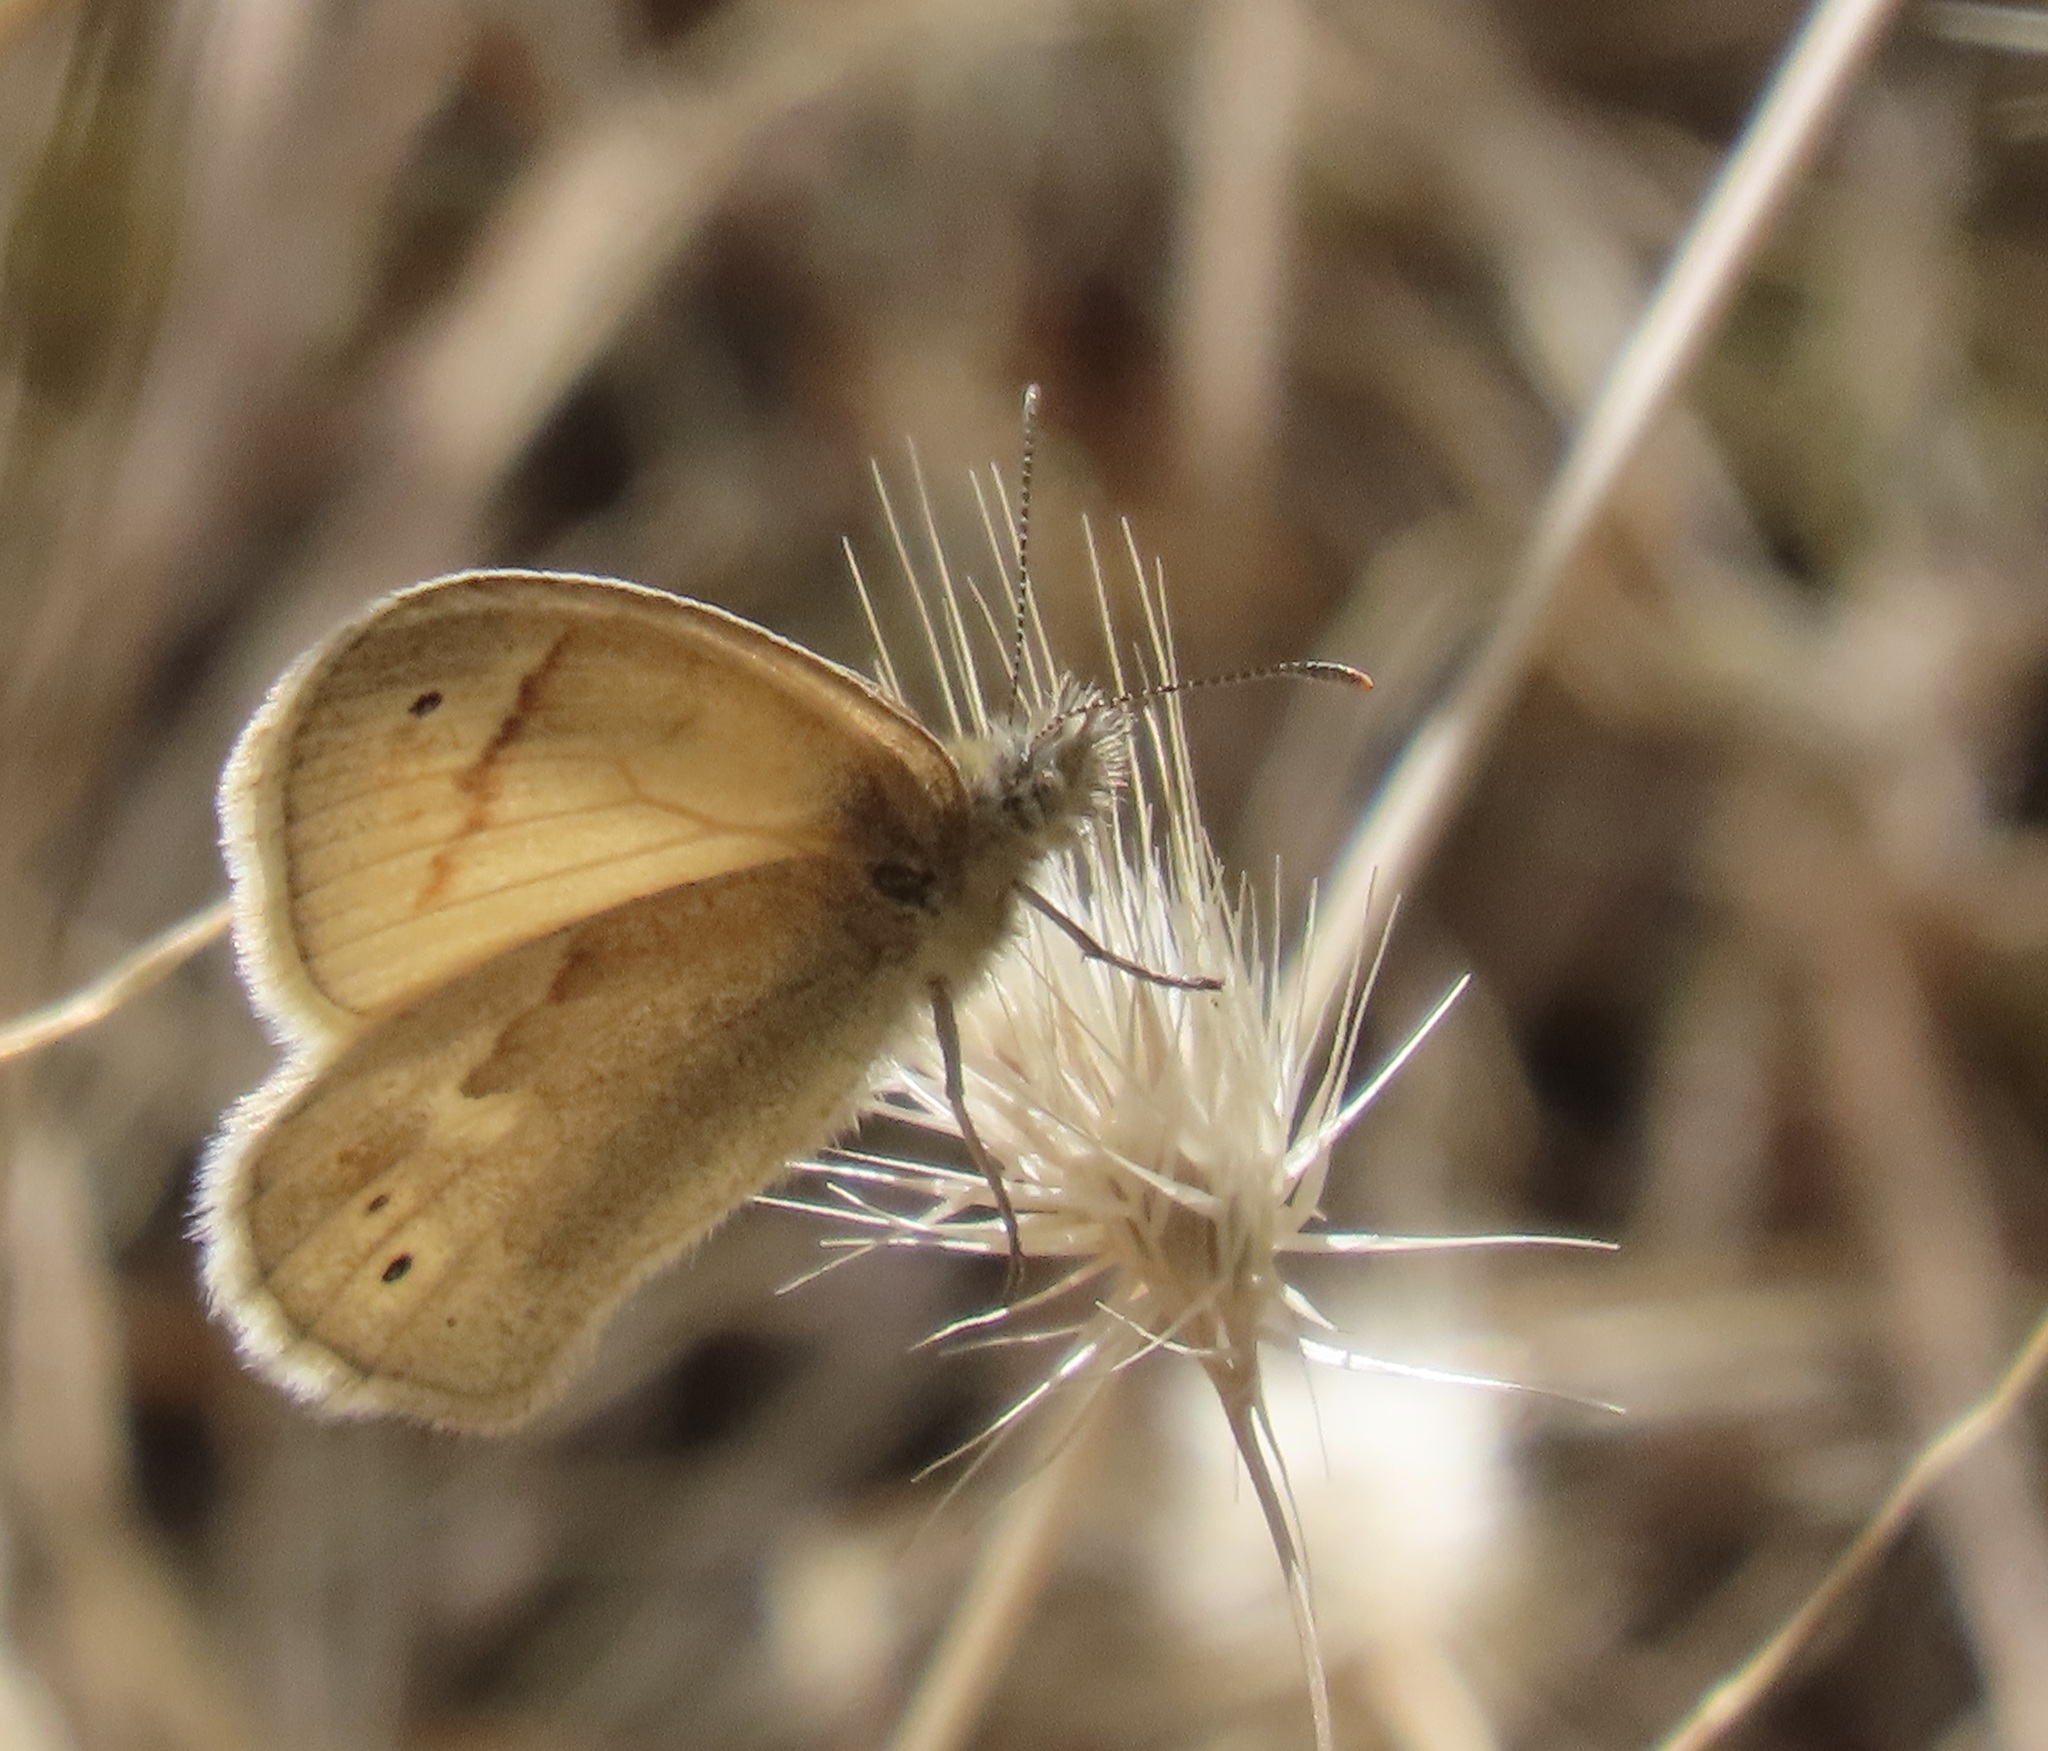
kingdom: Animalia
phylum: Arthropoda
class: Insecta
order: Lepidoptera
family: Nymphalidae
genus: Coenonympha
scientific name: Coenonympha california
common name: Common ringlet
